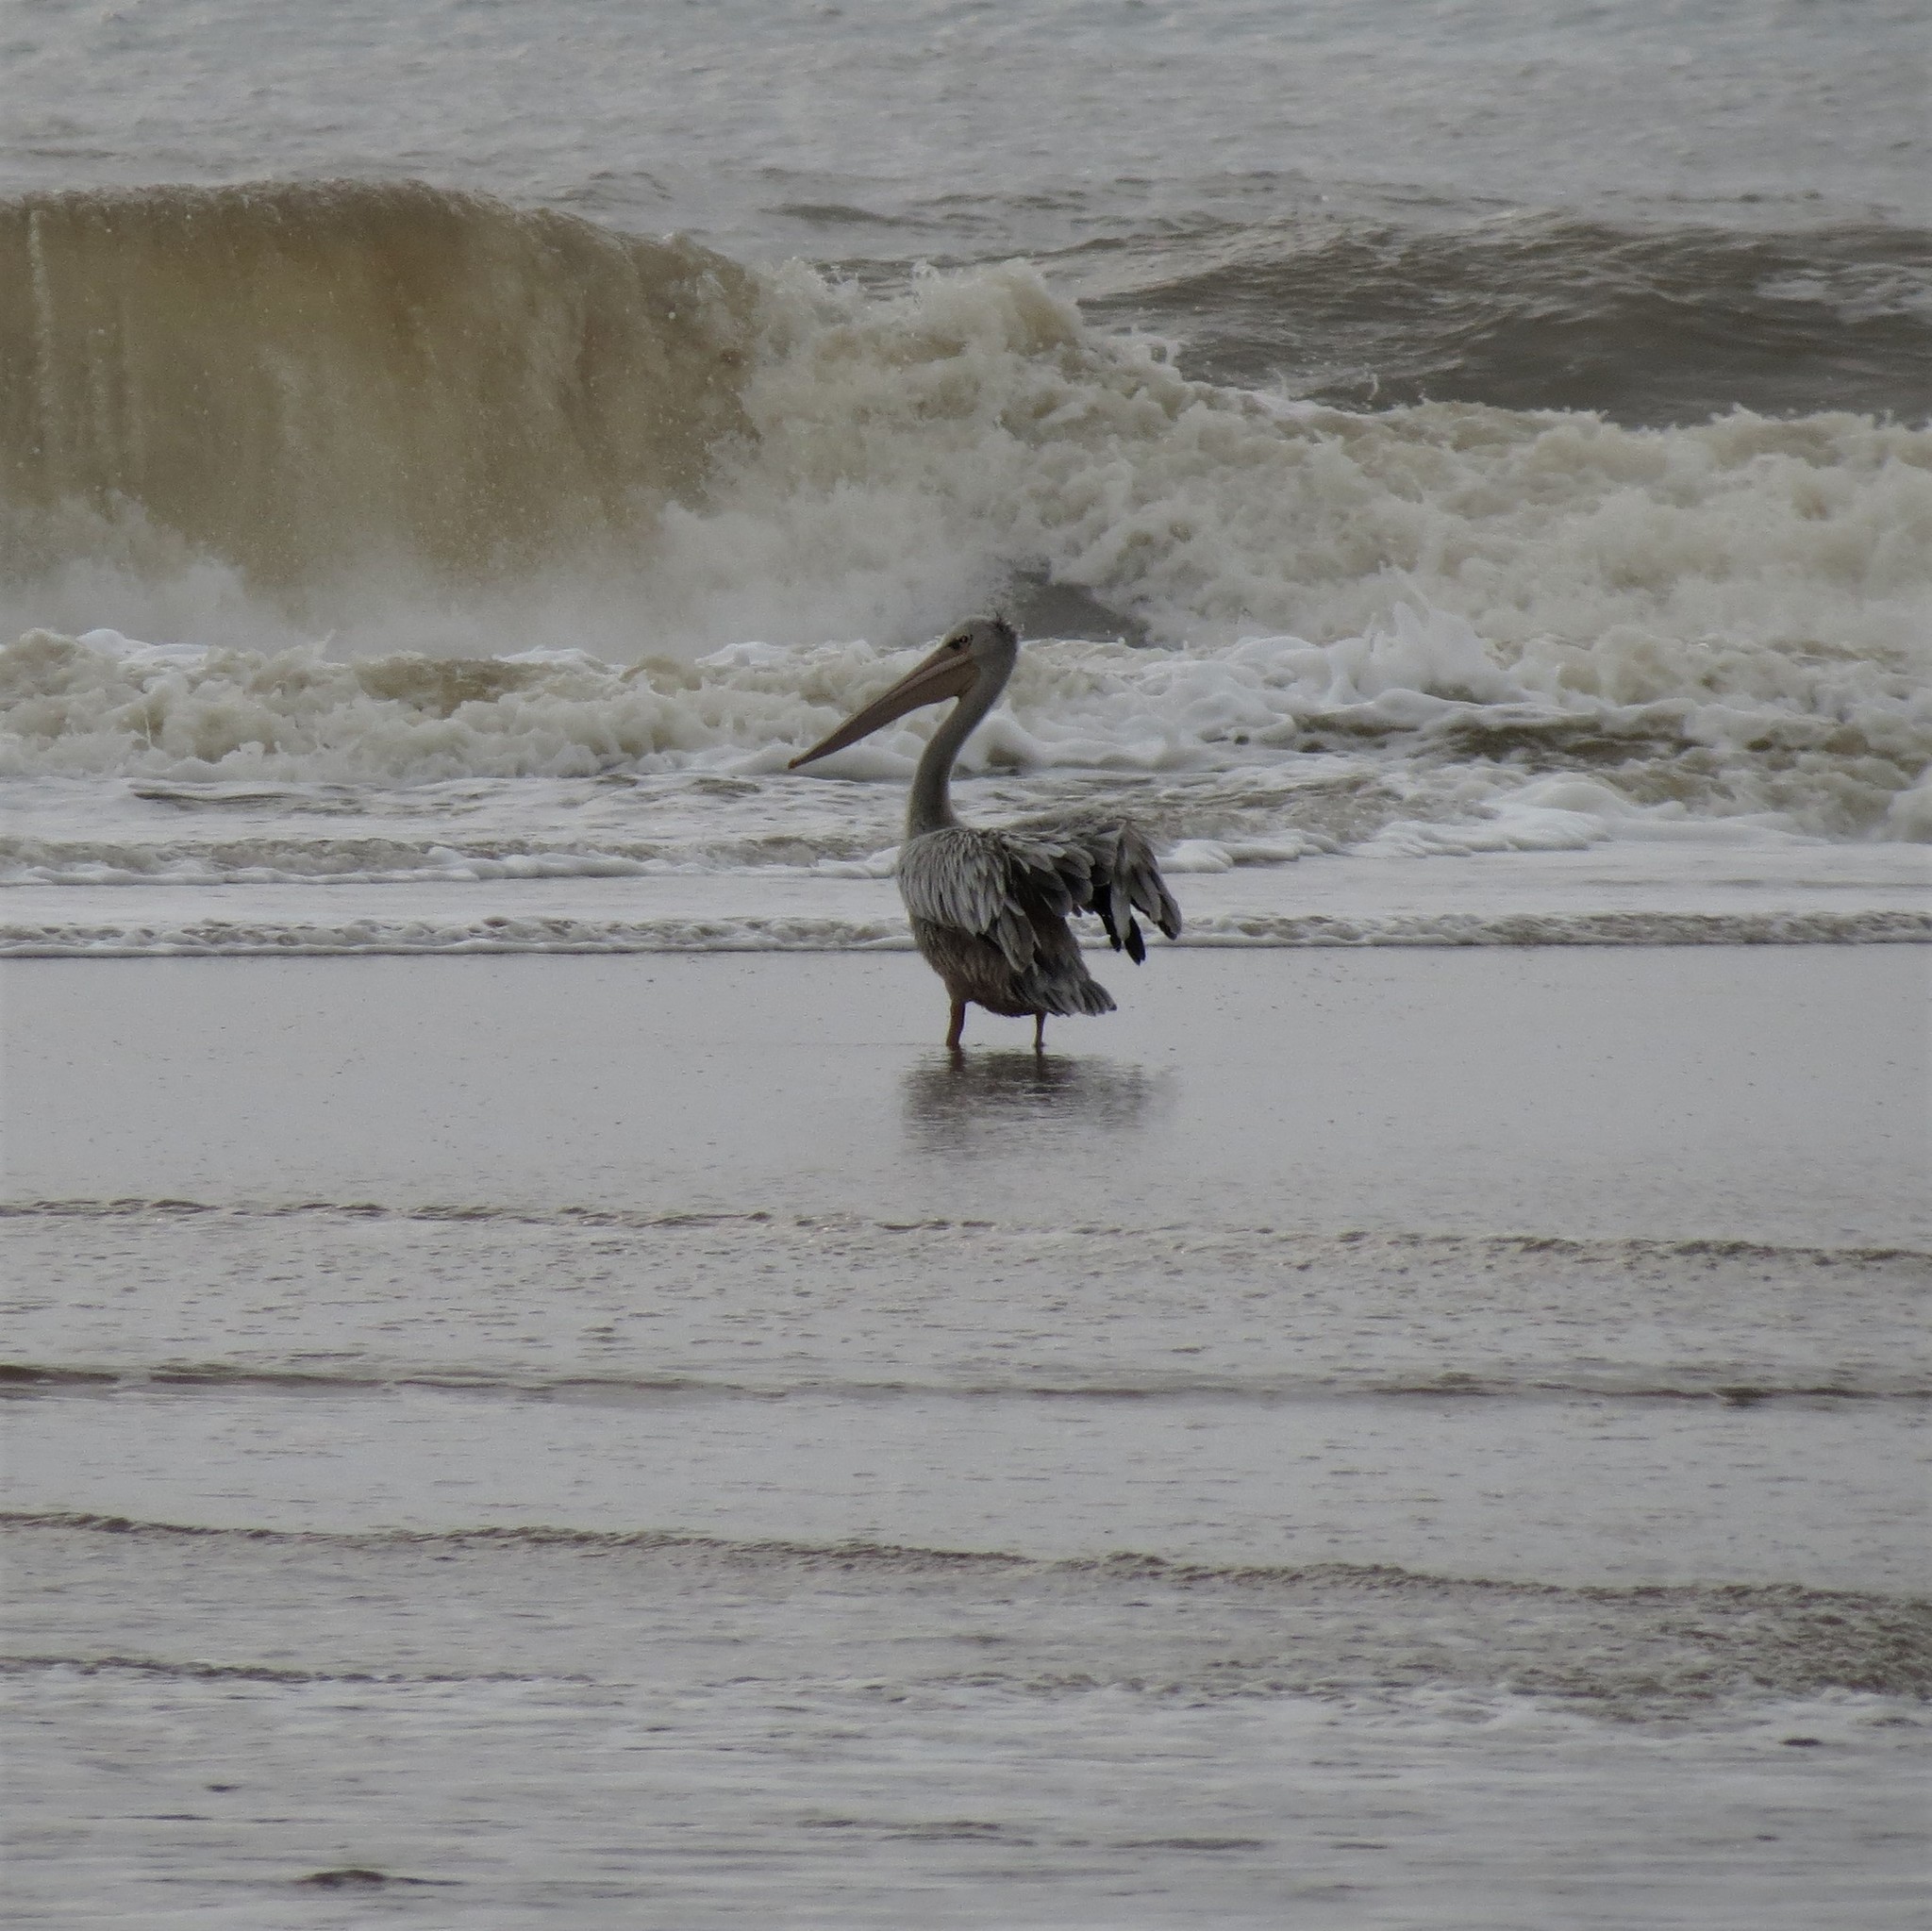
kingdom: Animalia
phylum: Chordata
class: Aves
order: Pelecaniformes
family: Pelecanidae
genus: Pelecanus
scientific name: Pelecanus rufescens
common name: Pink-backed pelican
